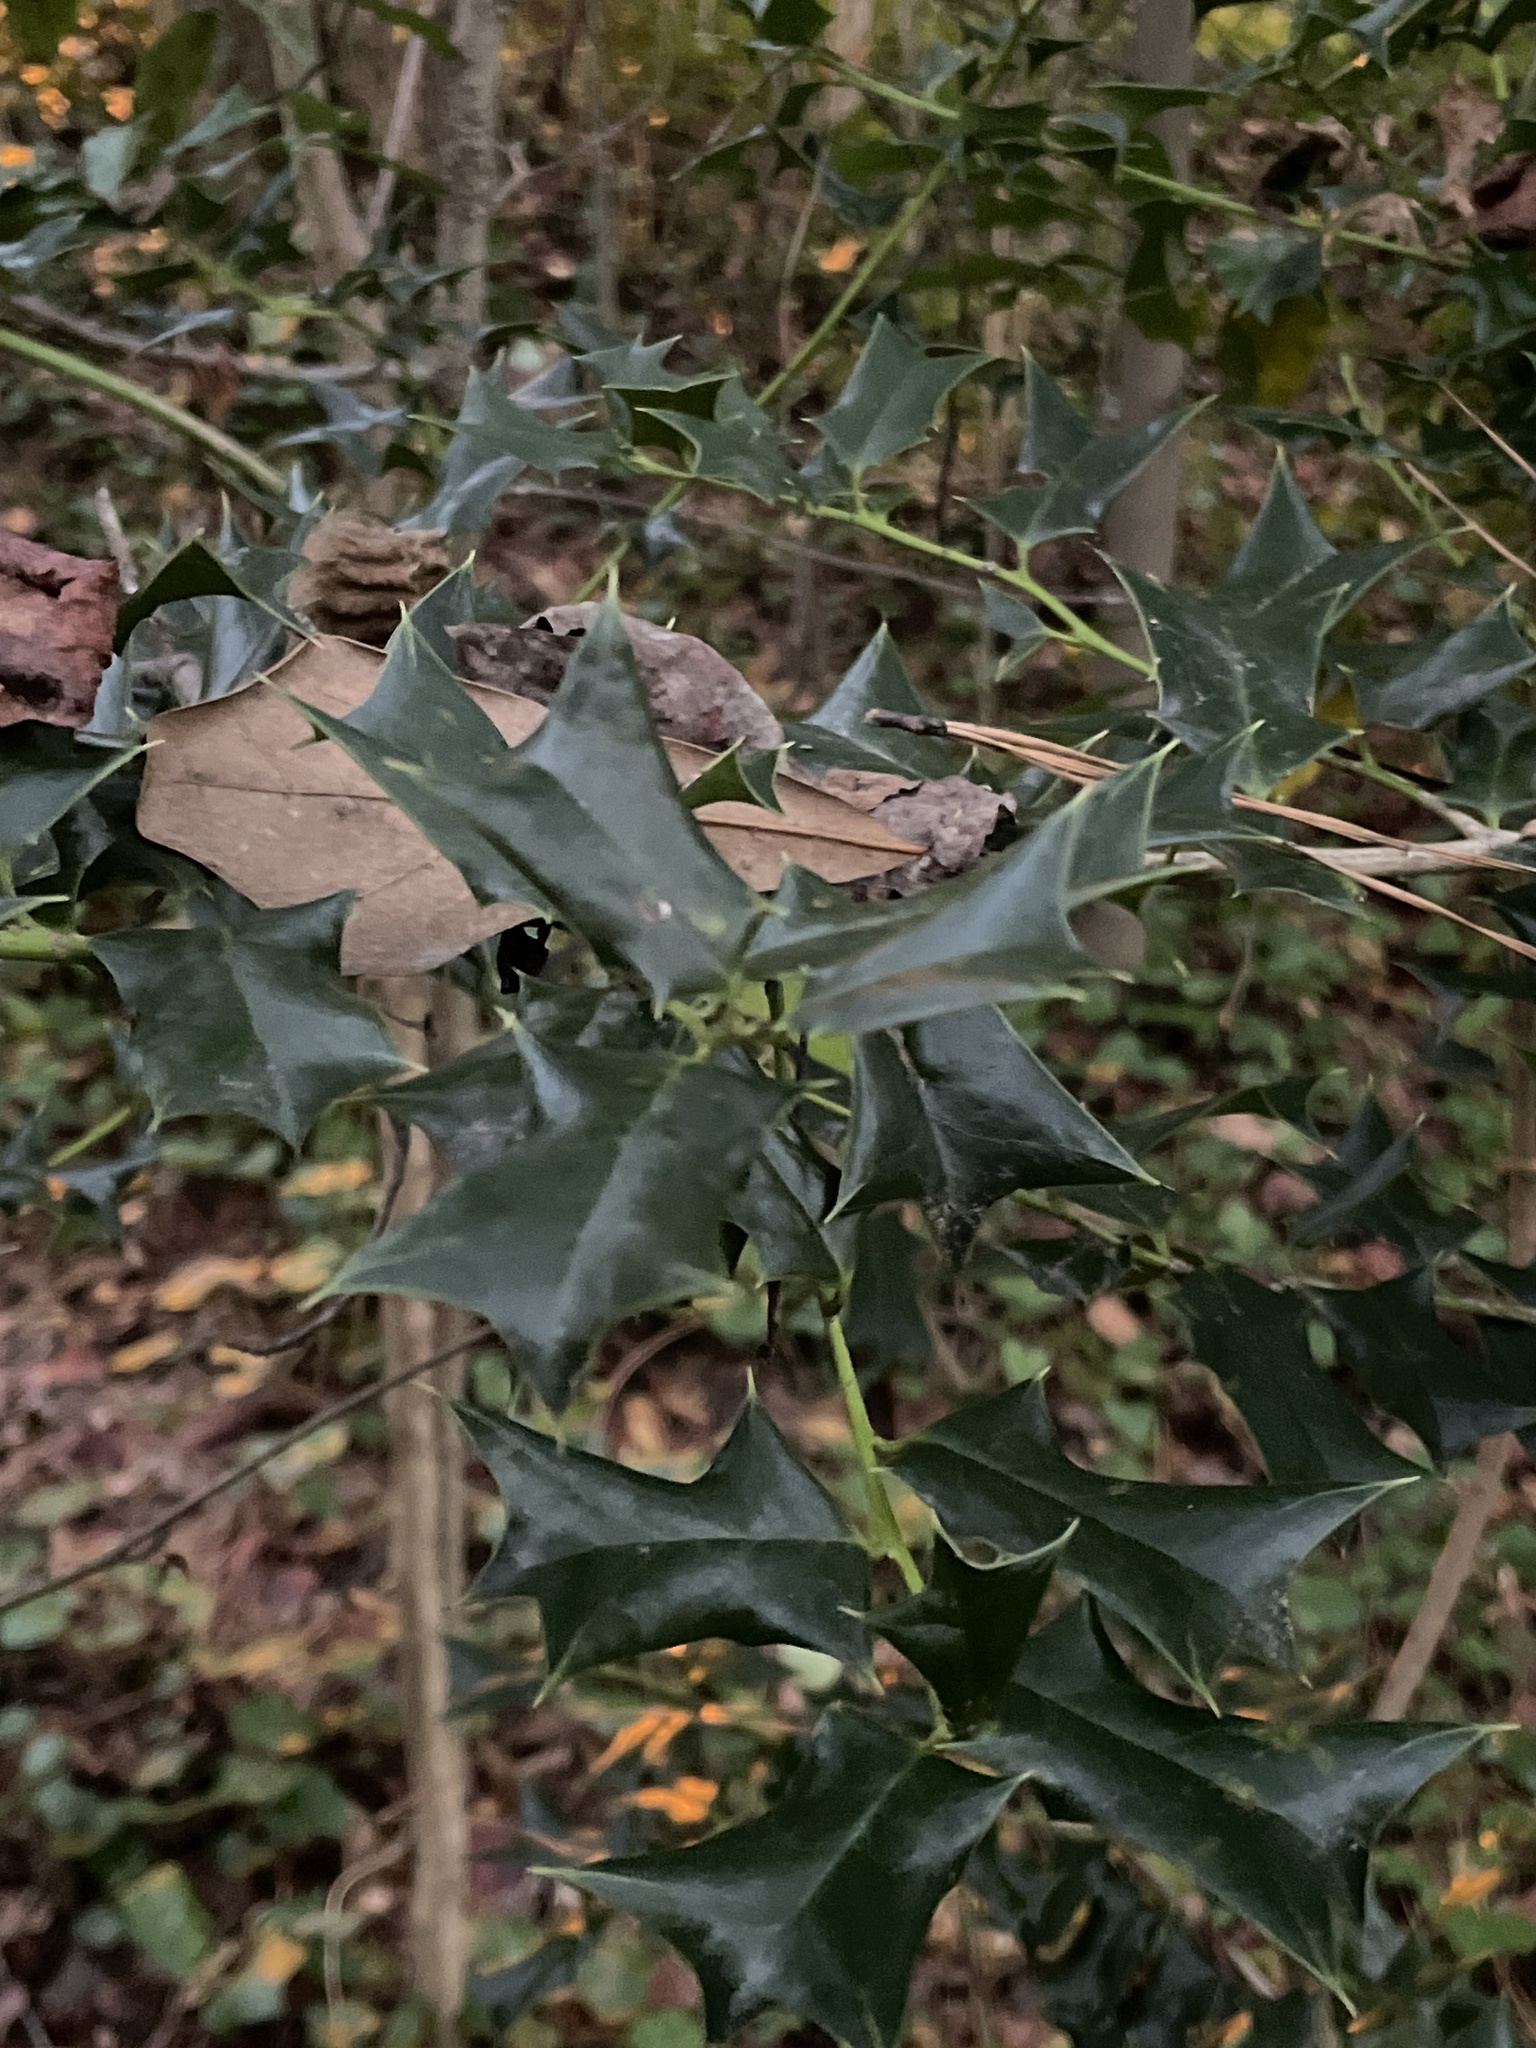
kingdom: Plantae
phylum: Tracheophyta
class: Magnoliopsida
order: Aquifoliales
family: Aquifoliaceae
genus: Ilex
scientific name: Ilex cornuta
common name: Chinese holly
